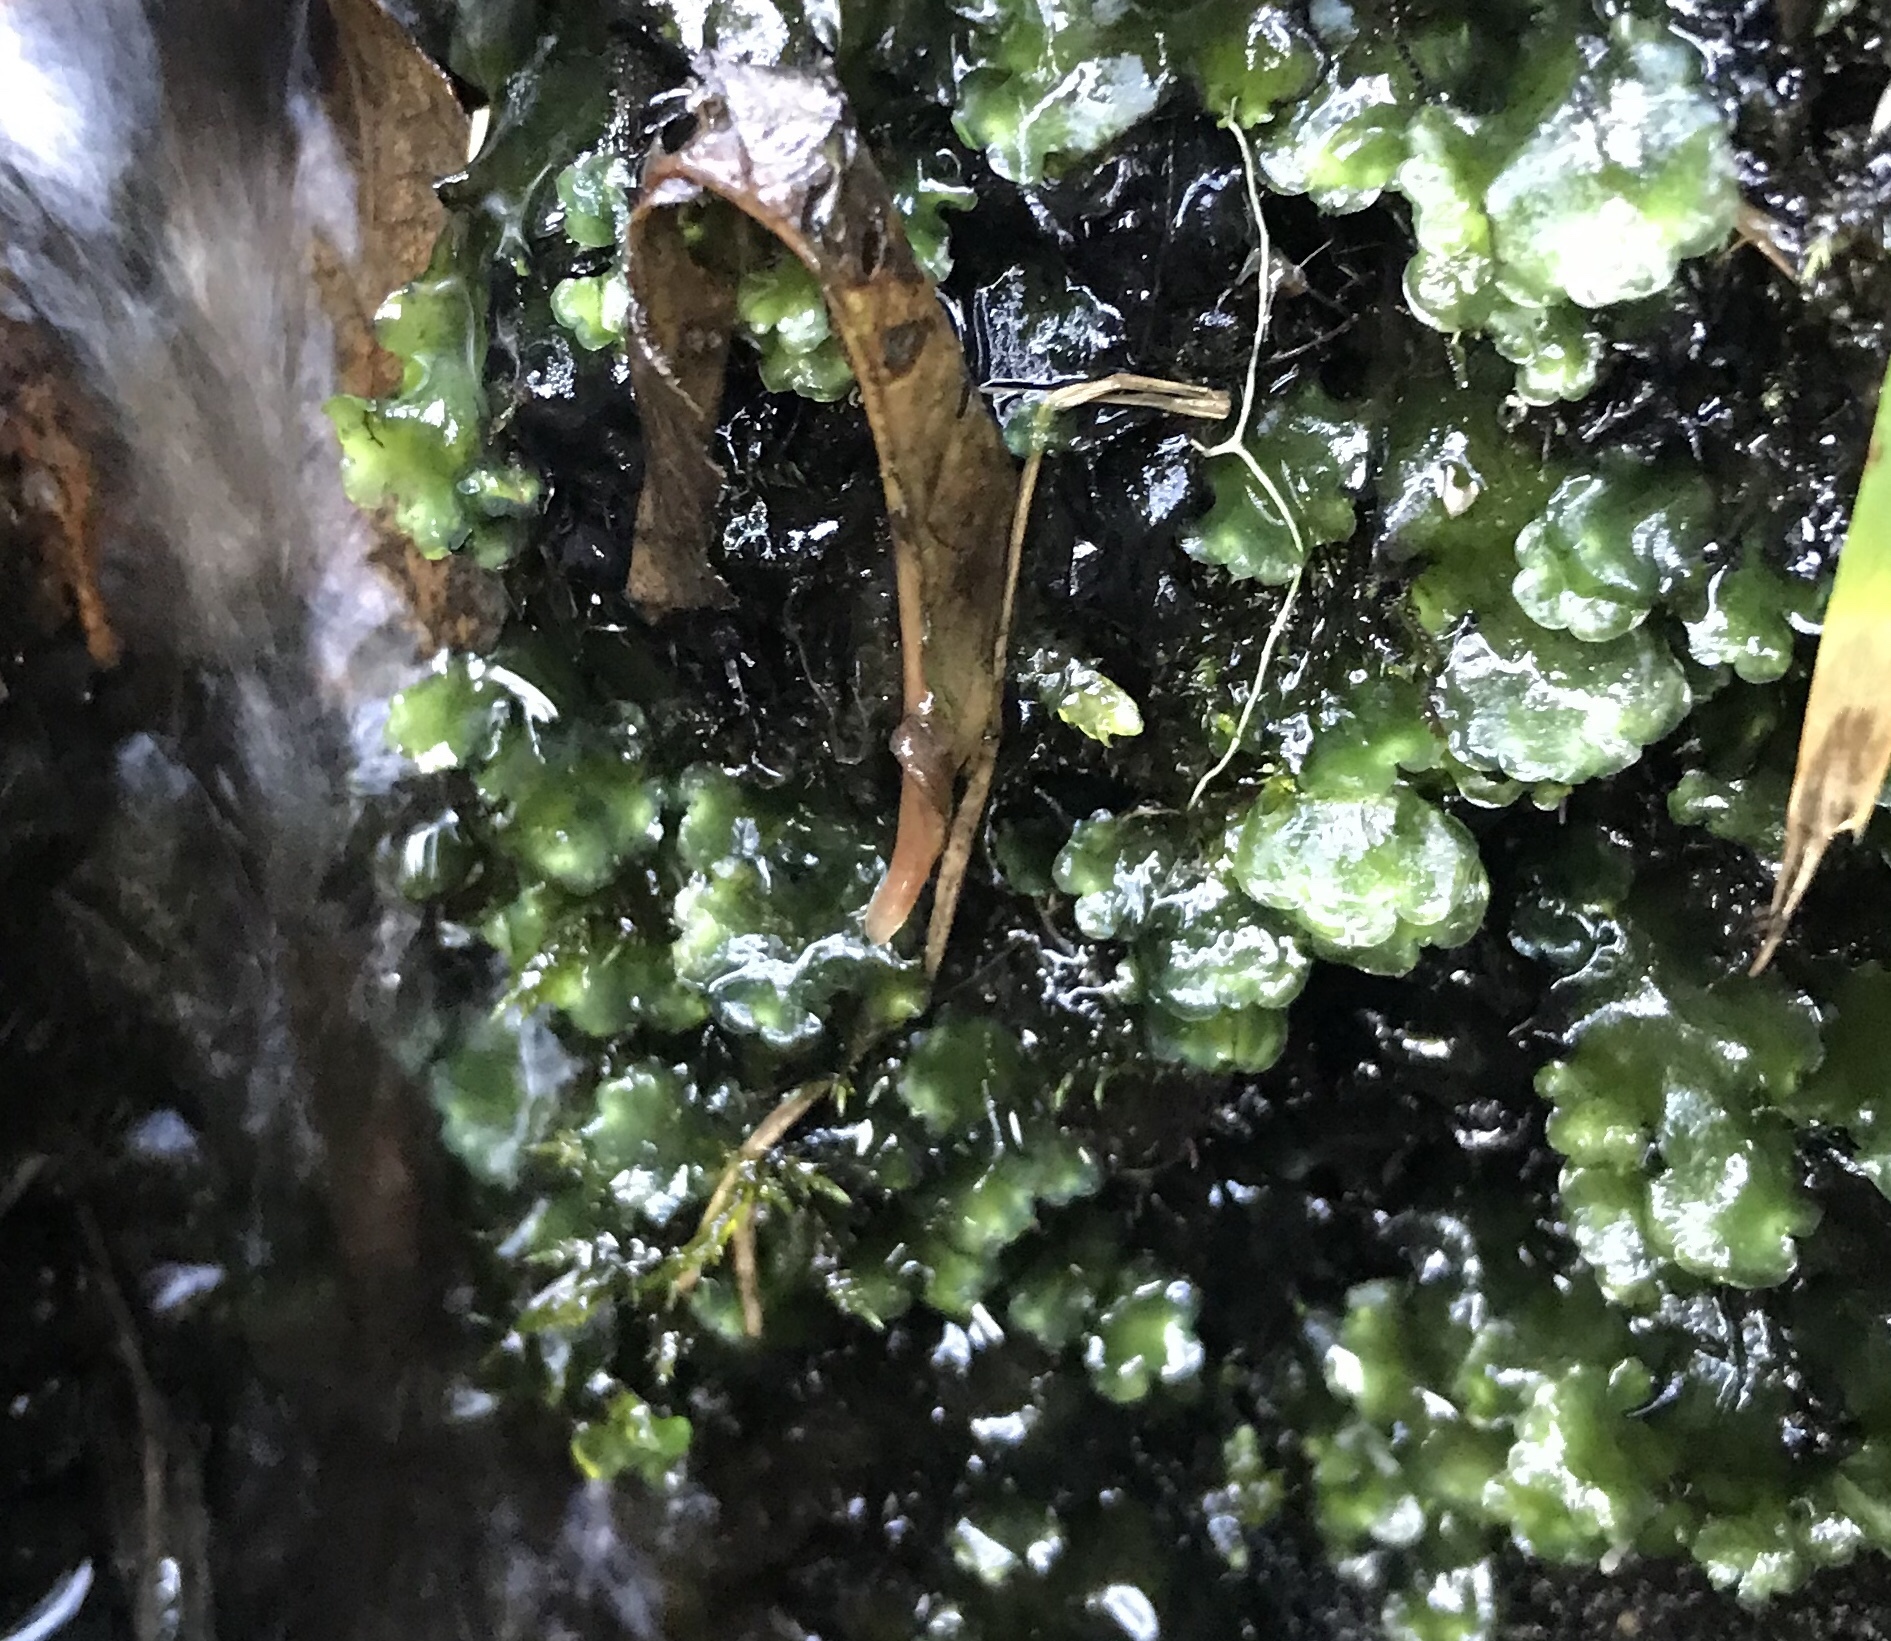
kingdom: Plantae
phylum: Marchantiophyta
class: Jungermanniopsida
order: Pelliales
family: Pelliaceae
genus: Pellia
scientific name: Pellia neesiana
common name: Nees  pellia
